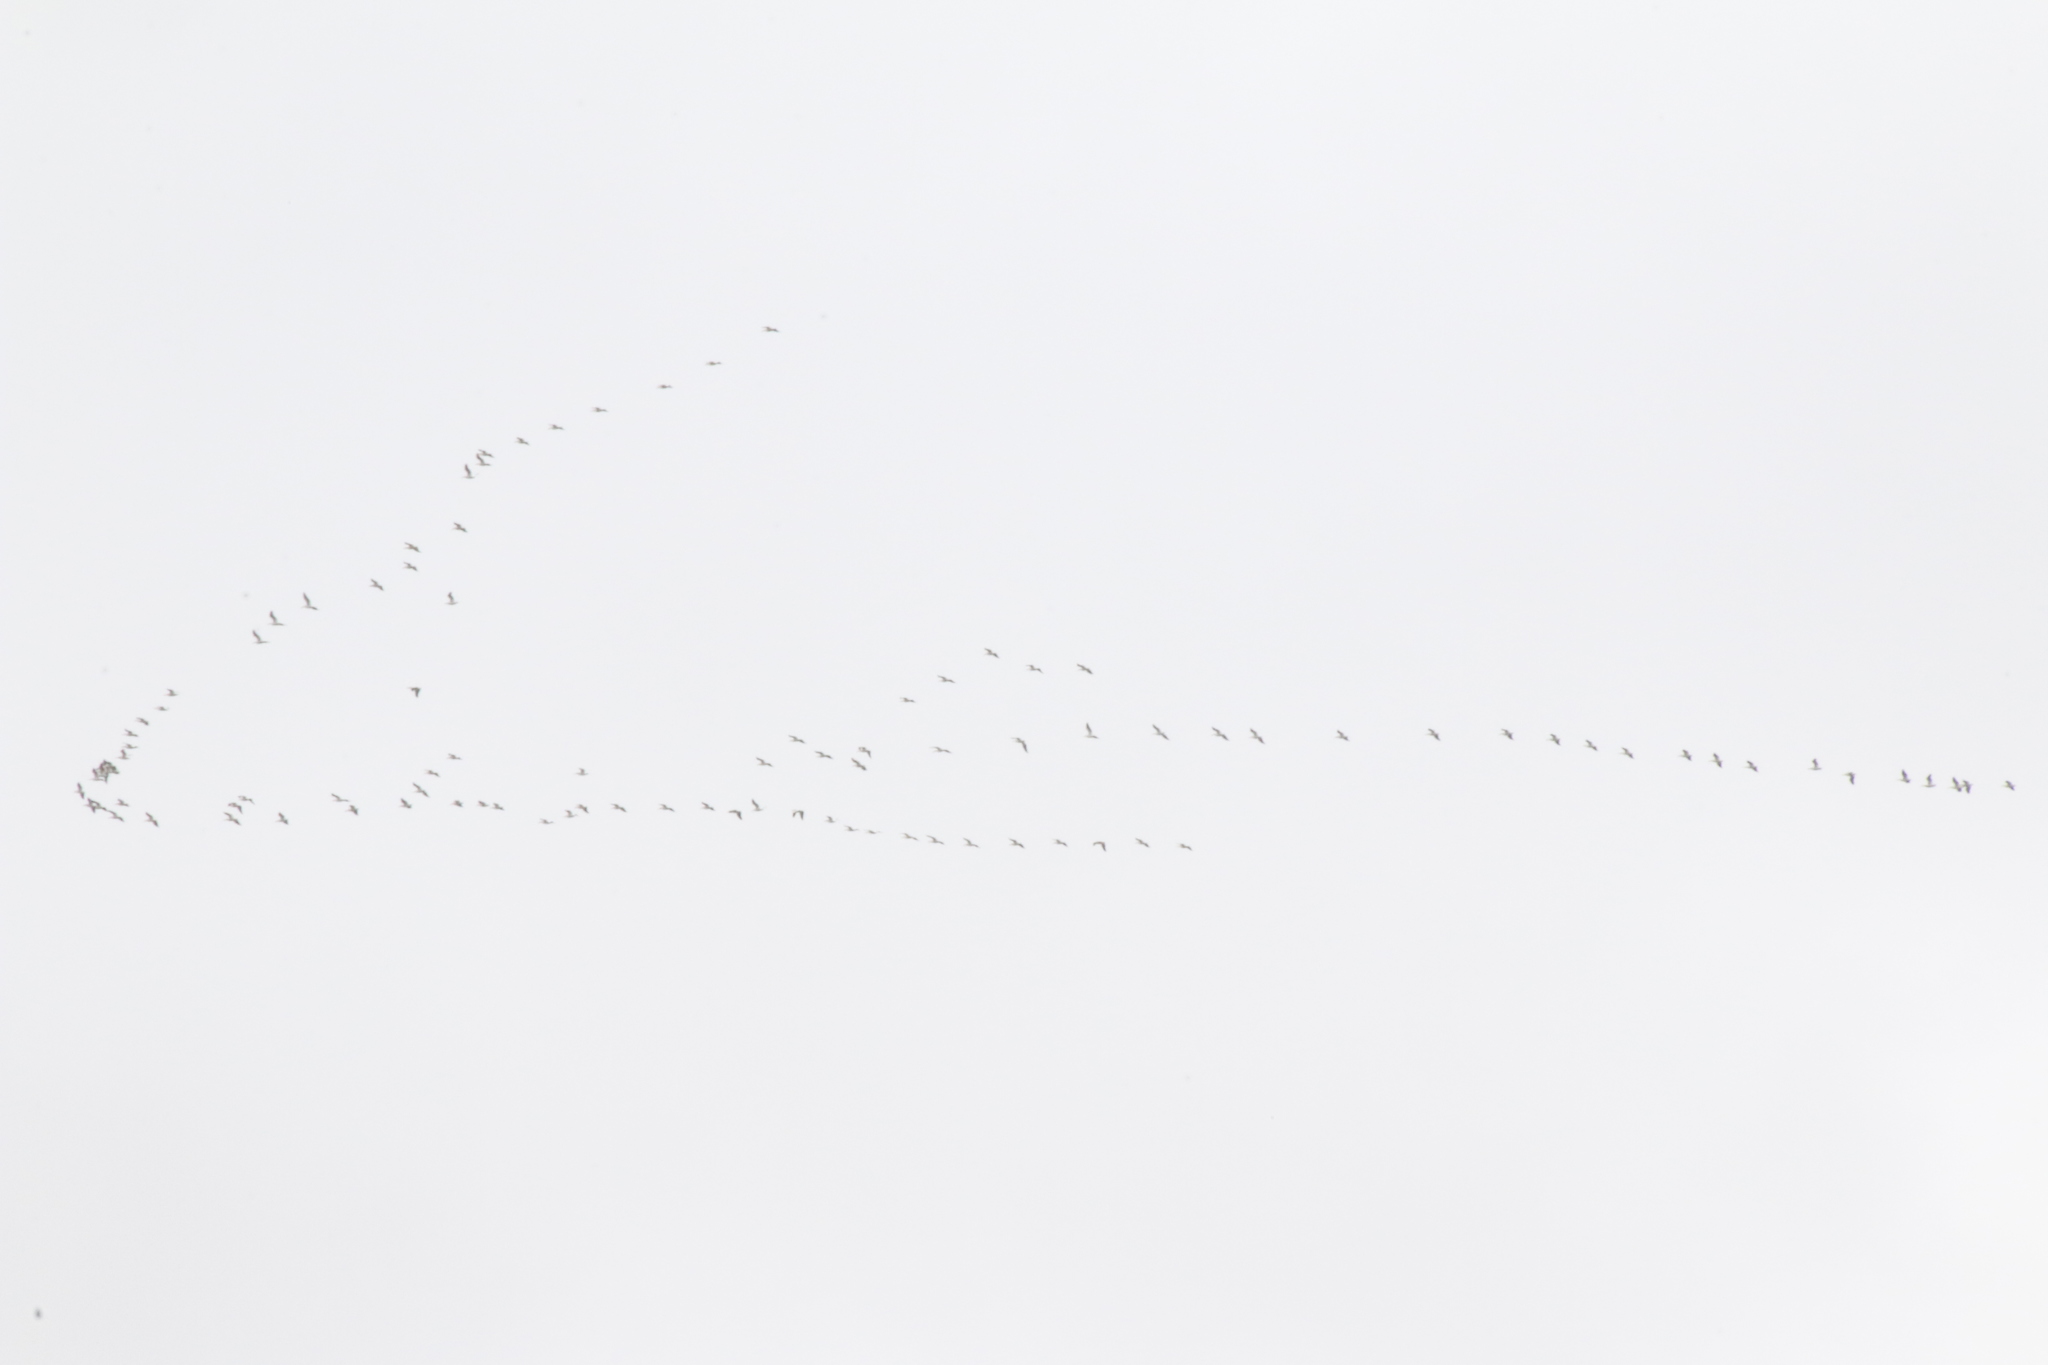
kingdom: Animalia
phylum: Chordata
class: Aves
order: Pelecaniformes
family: Pelecanidae
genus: Pelecanus
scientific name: Pelecanus erythrorhynchos
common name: American white pelican
